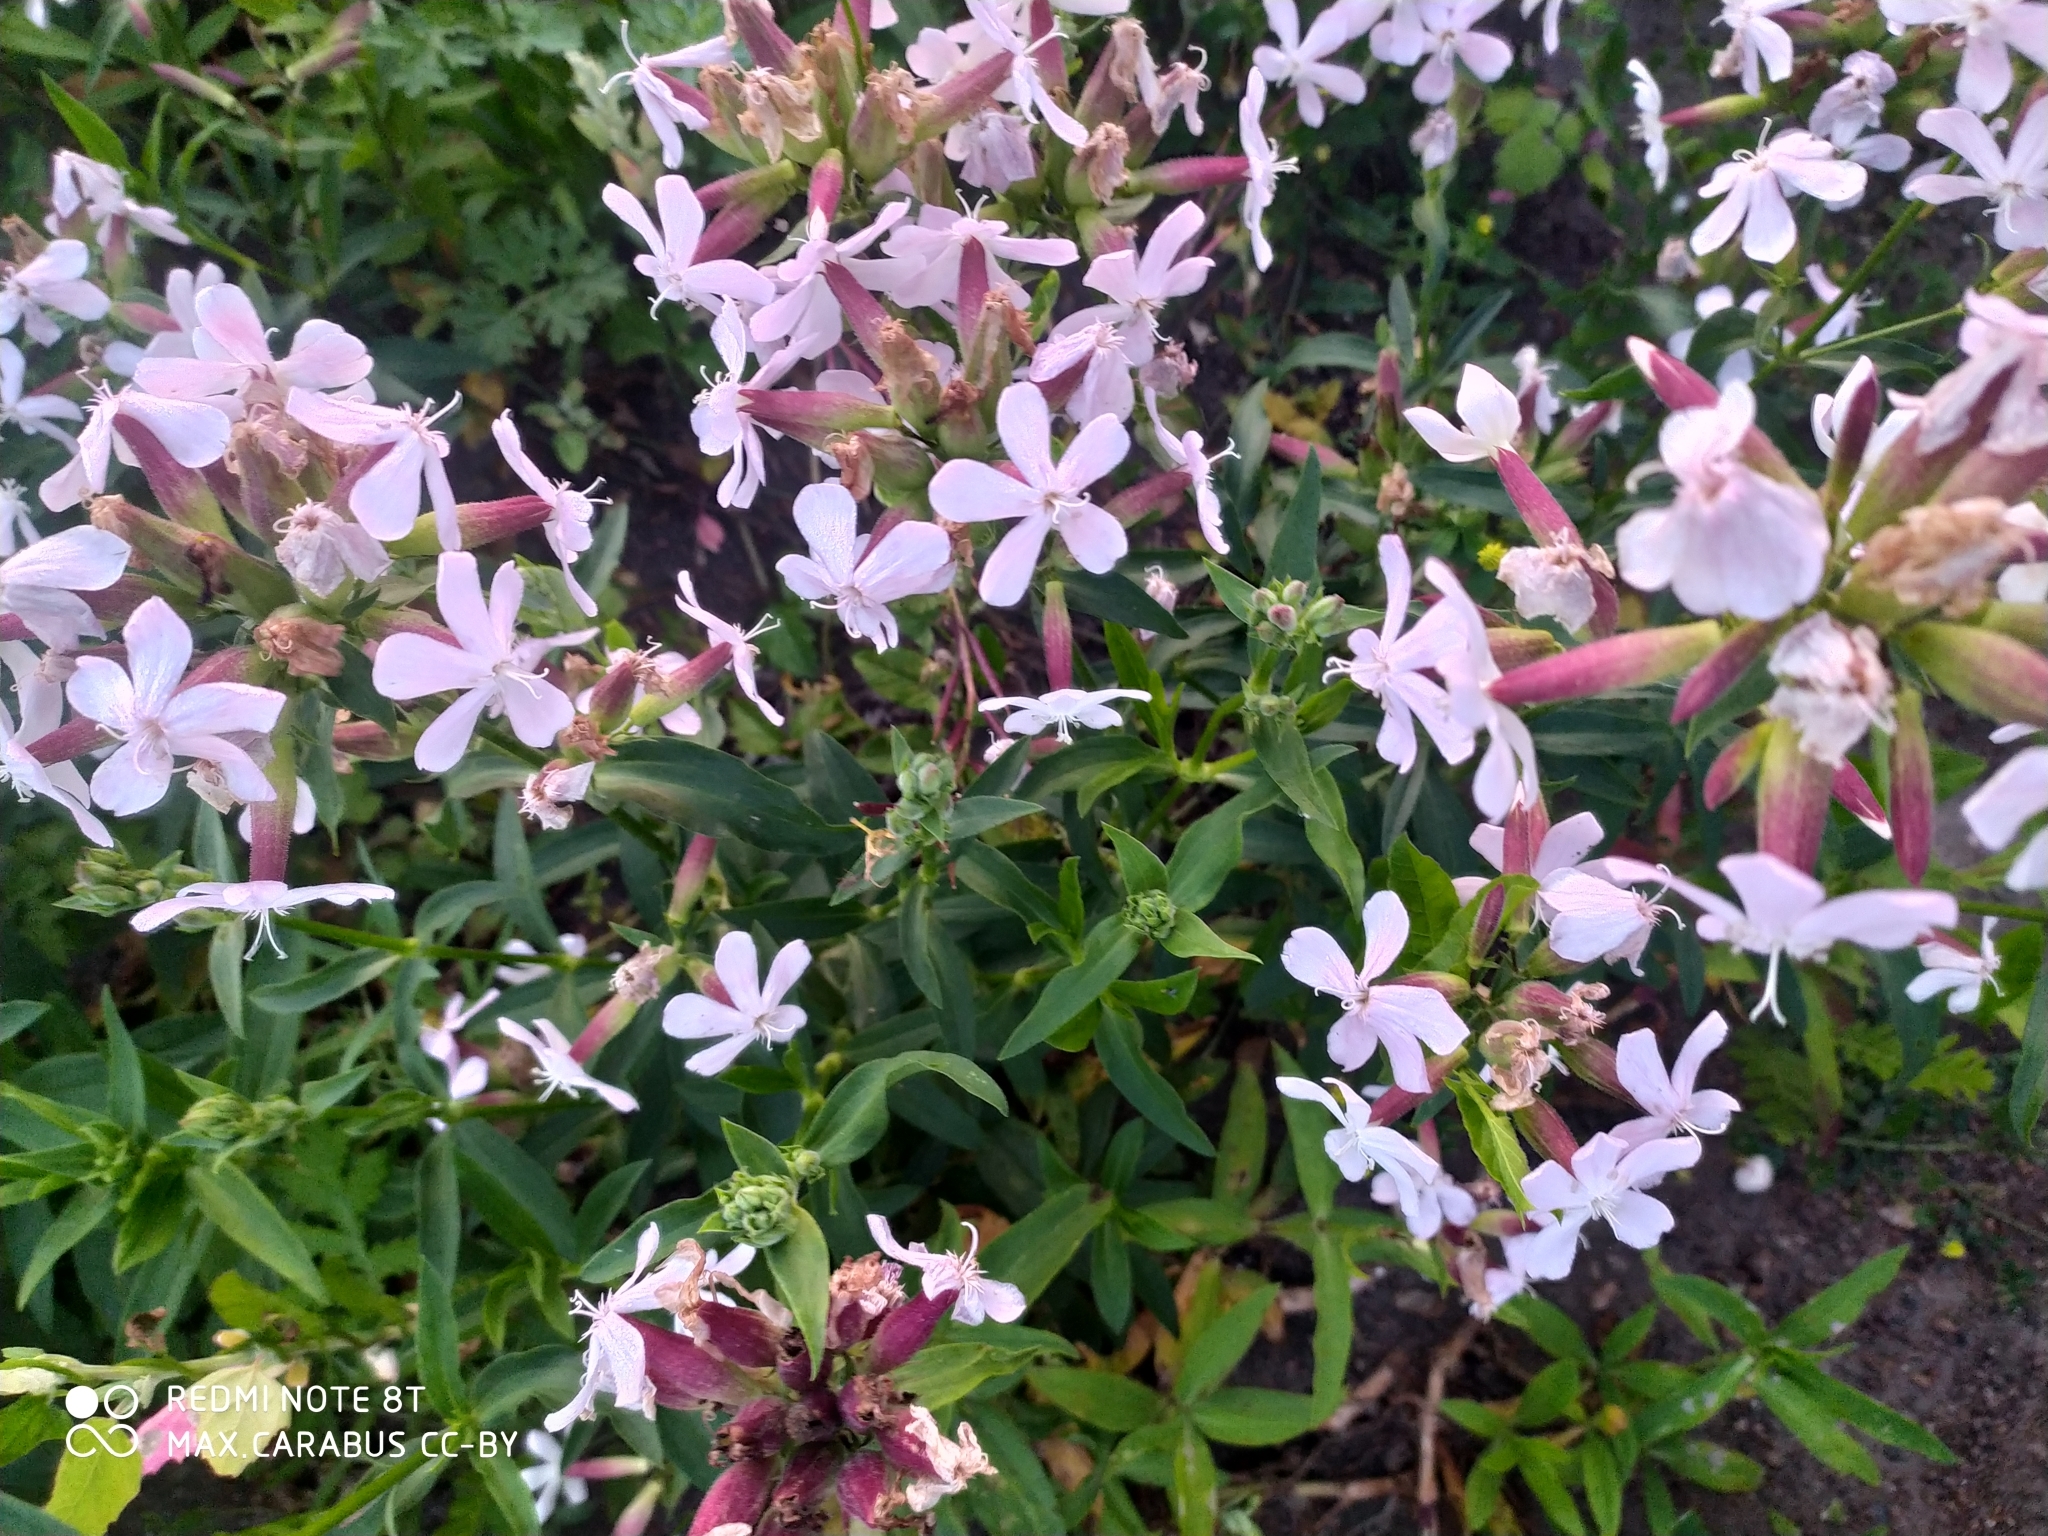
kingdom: Plantae
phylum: Tracheophyta
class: Magnoliopsida
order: Caryophyllales
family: Caryophyllaceae
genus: Saponaria
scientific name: Saponaria officinalis
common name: Soapwort
